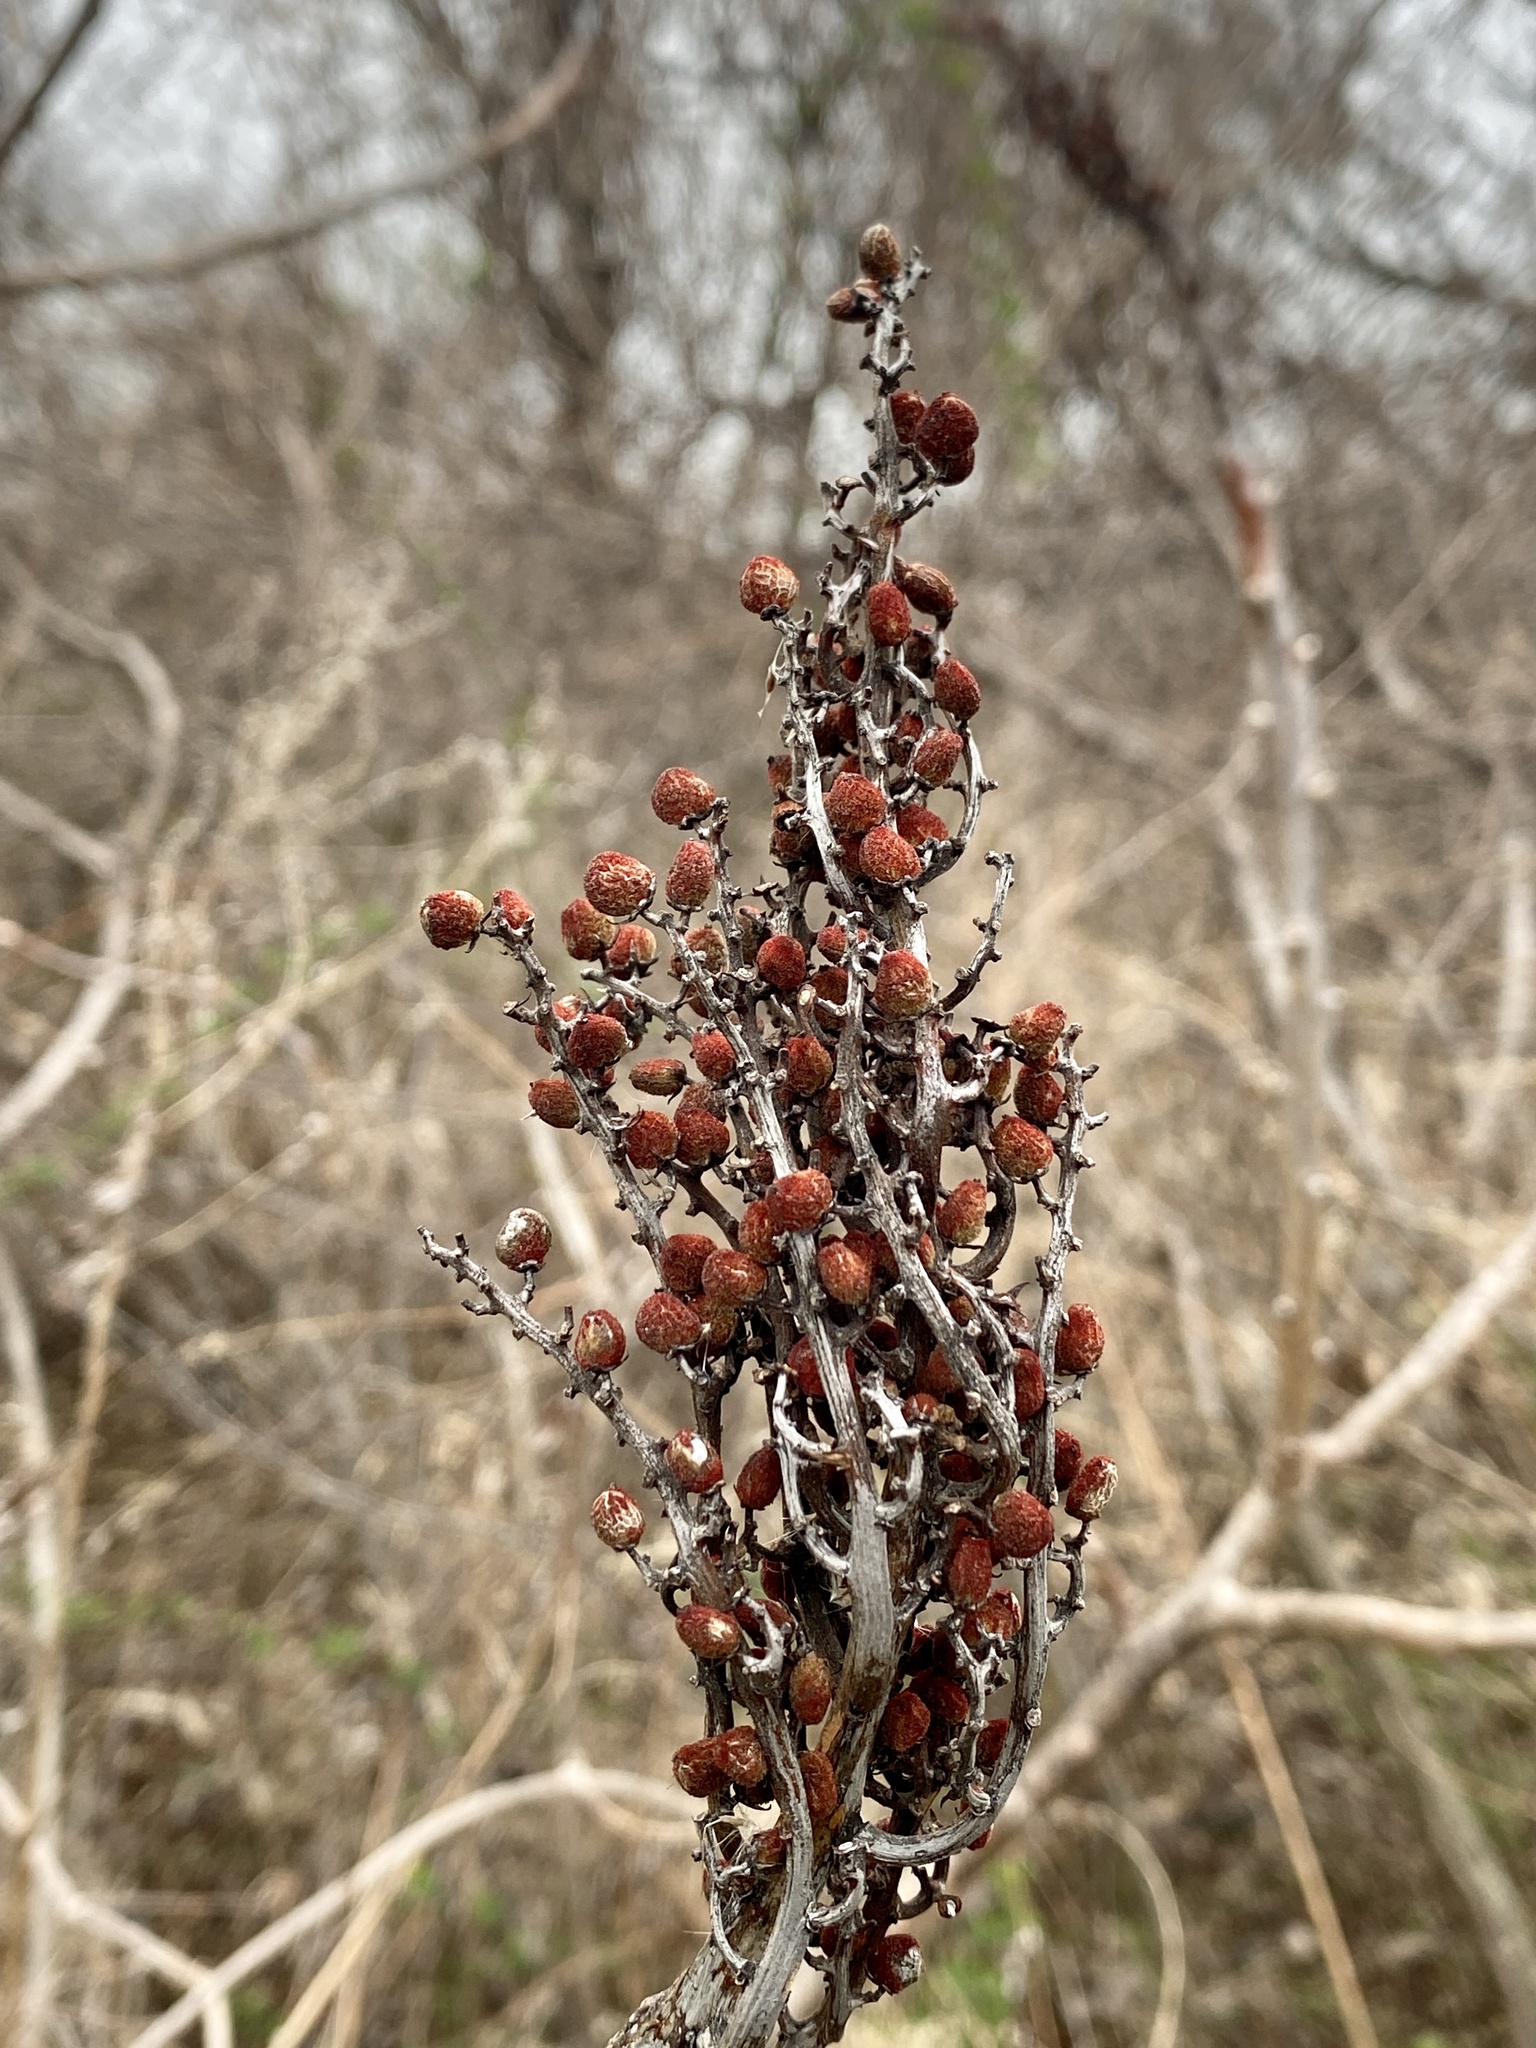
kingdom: Plantae
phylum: Tracheophyta
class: Magnoliopsida
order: Sapindales
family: Anacardiaceae
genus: Rhus
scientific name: Rhus glabra
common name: Scarlet sumac
